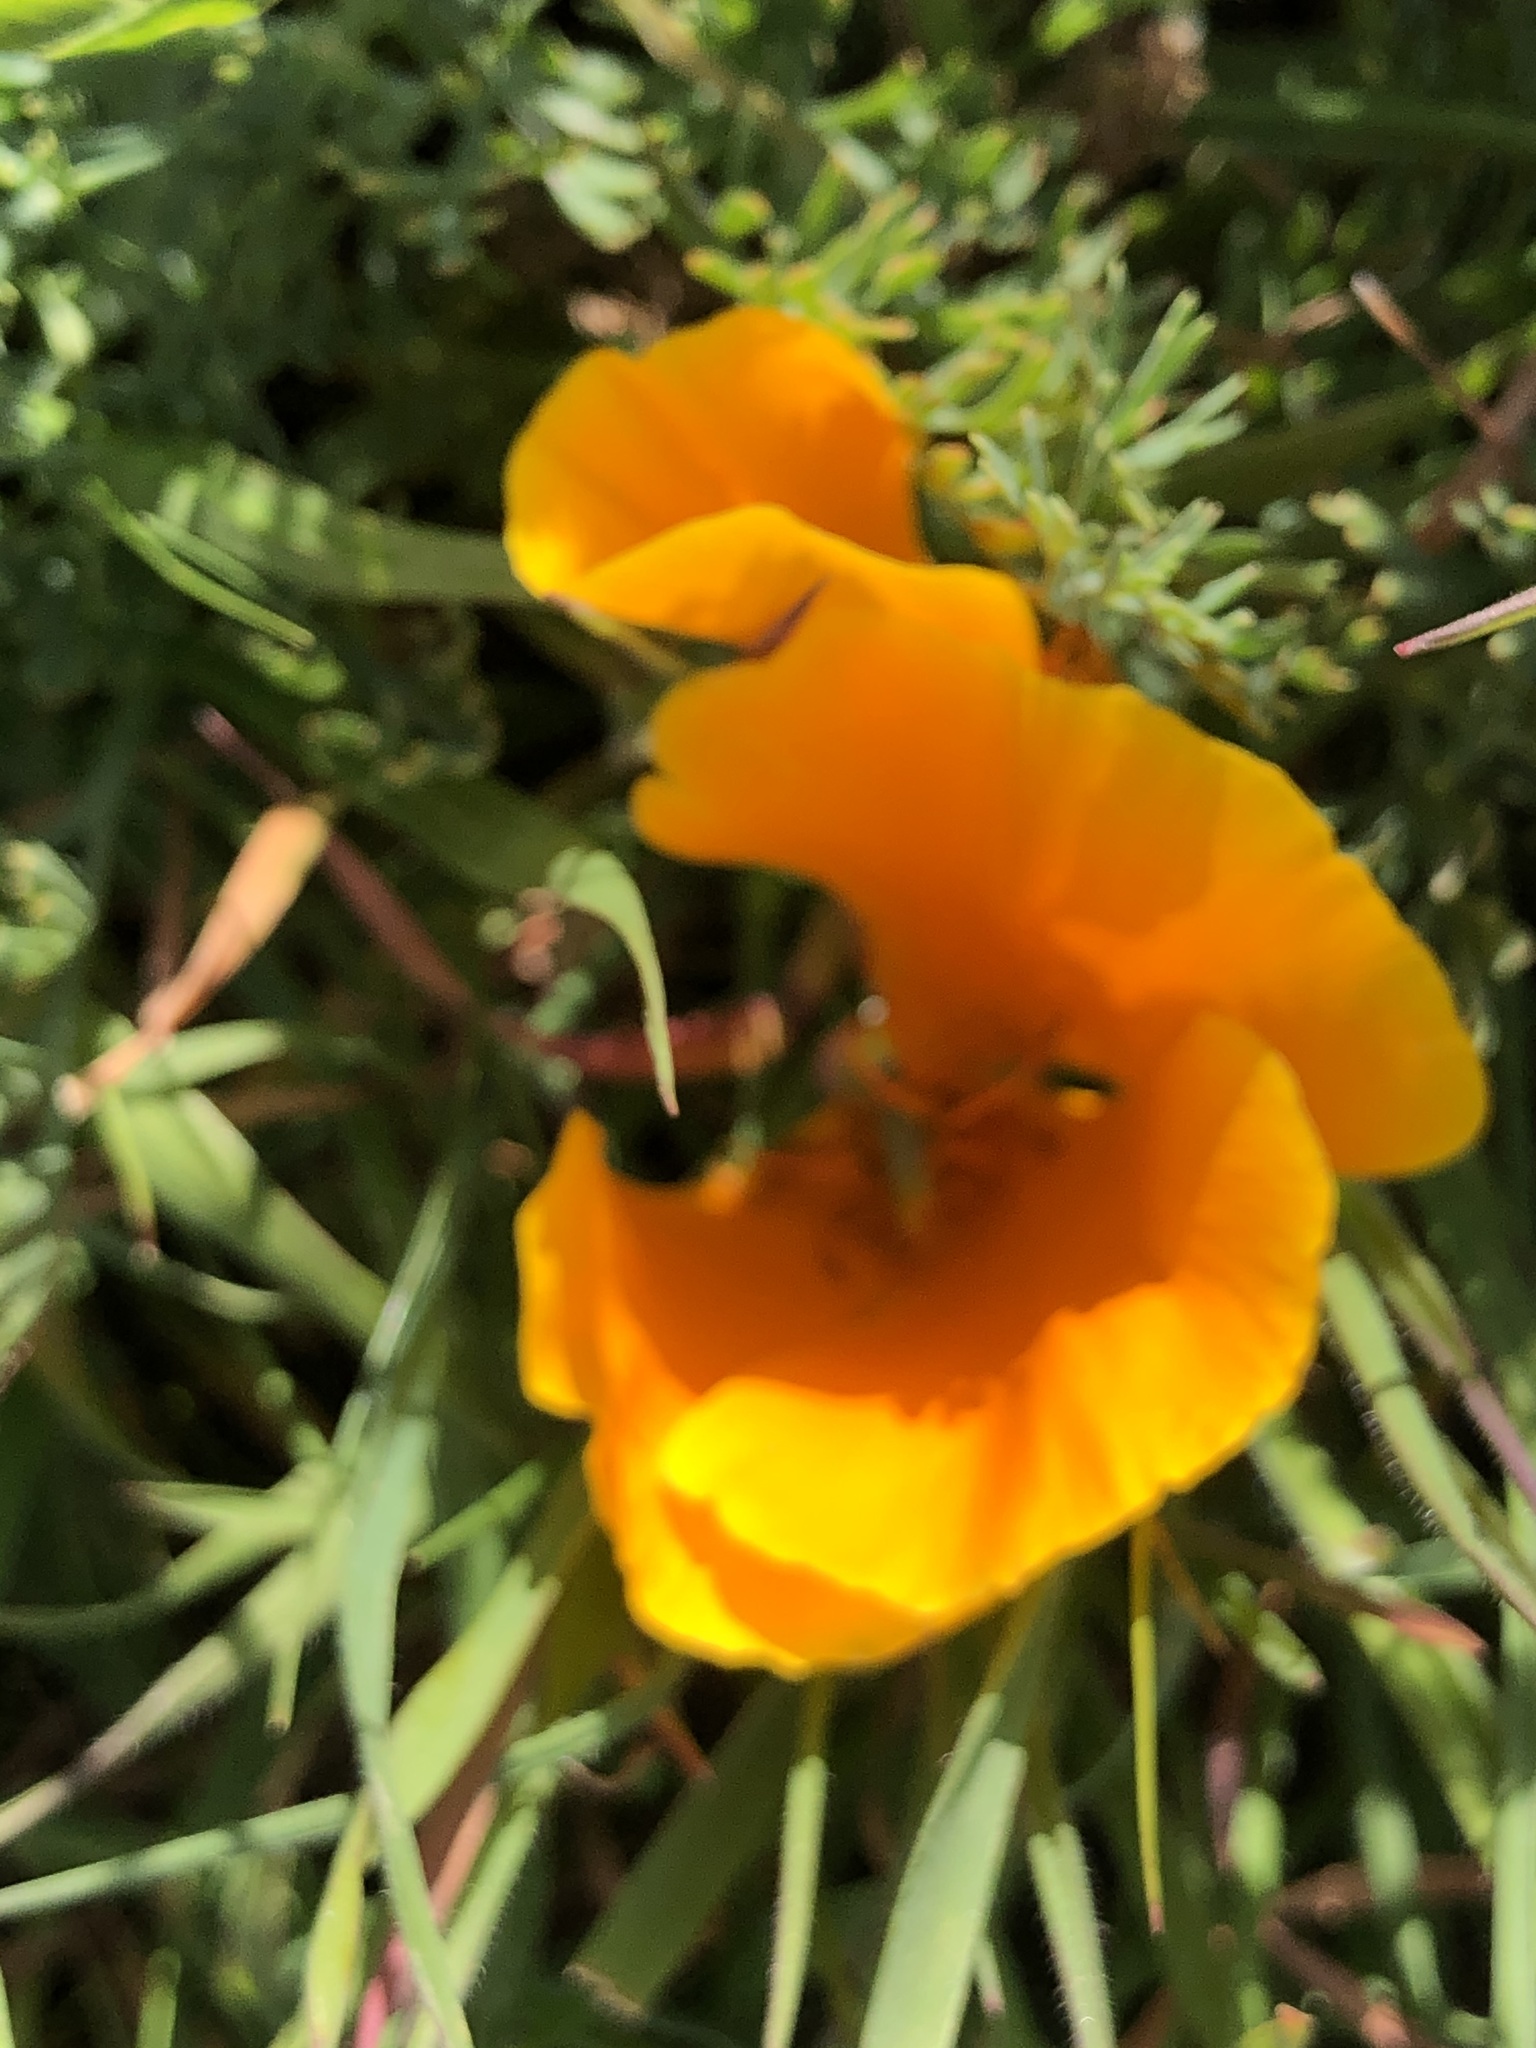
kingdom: Plantae
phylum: Tracheophyta
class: Magnoliopsida
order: Ranunculales
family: Papaveraceae
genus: Eschscholzia
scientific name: Eschscholzia californica
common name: California poppy
